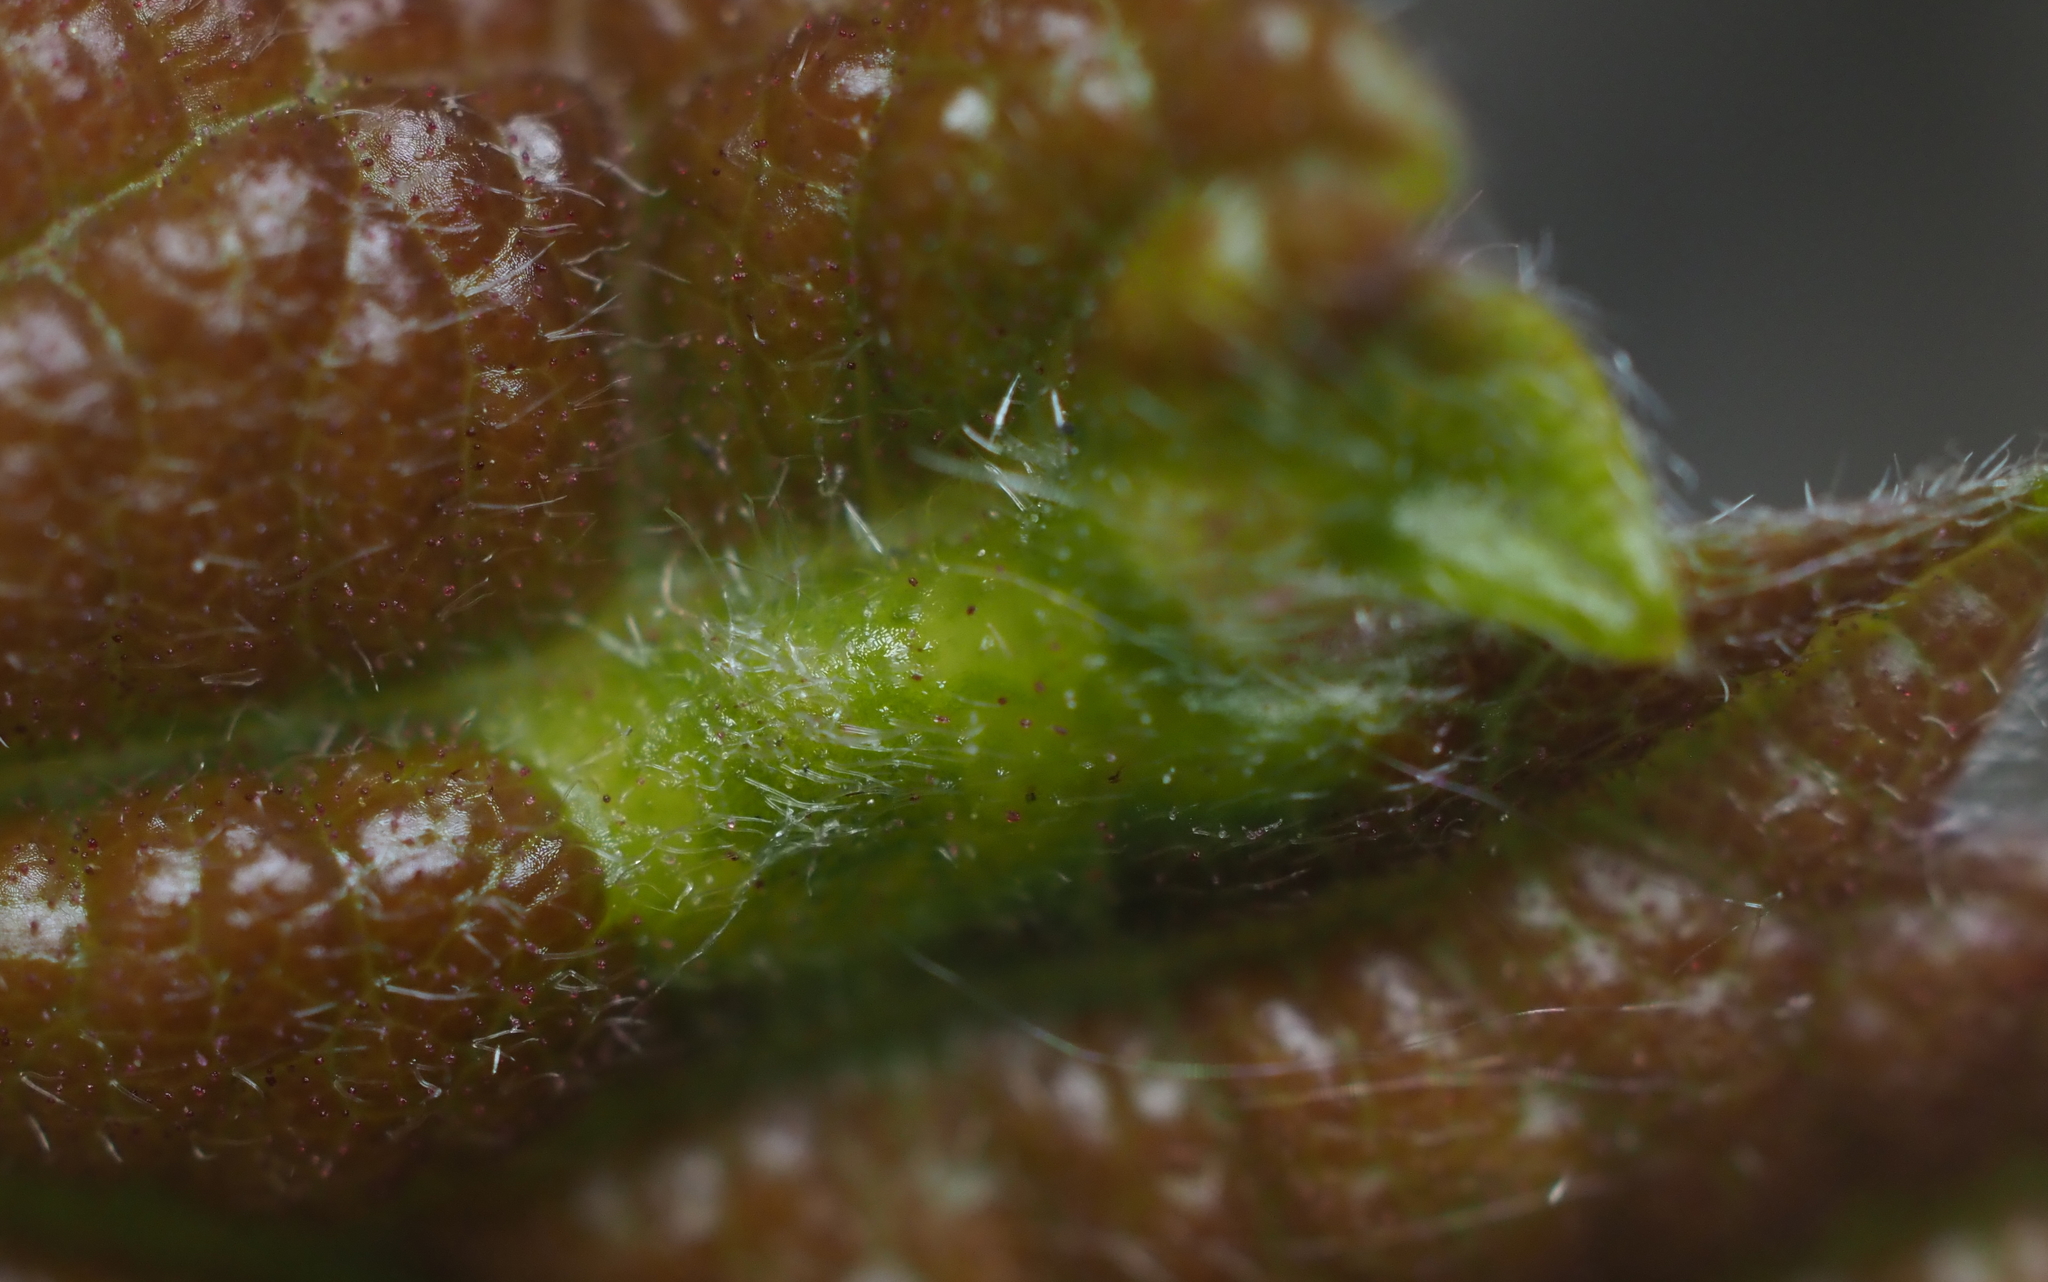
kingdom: Animalia
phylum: Arthropoda
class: Insecta
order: Hymenoptera
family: Cynipidae
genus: Neuroterus
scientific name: Neuroterus
